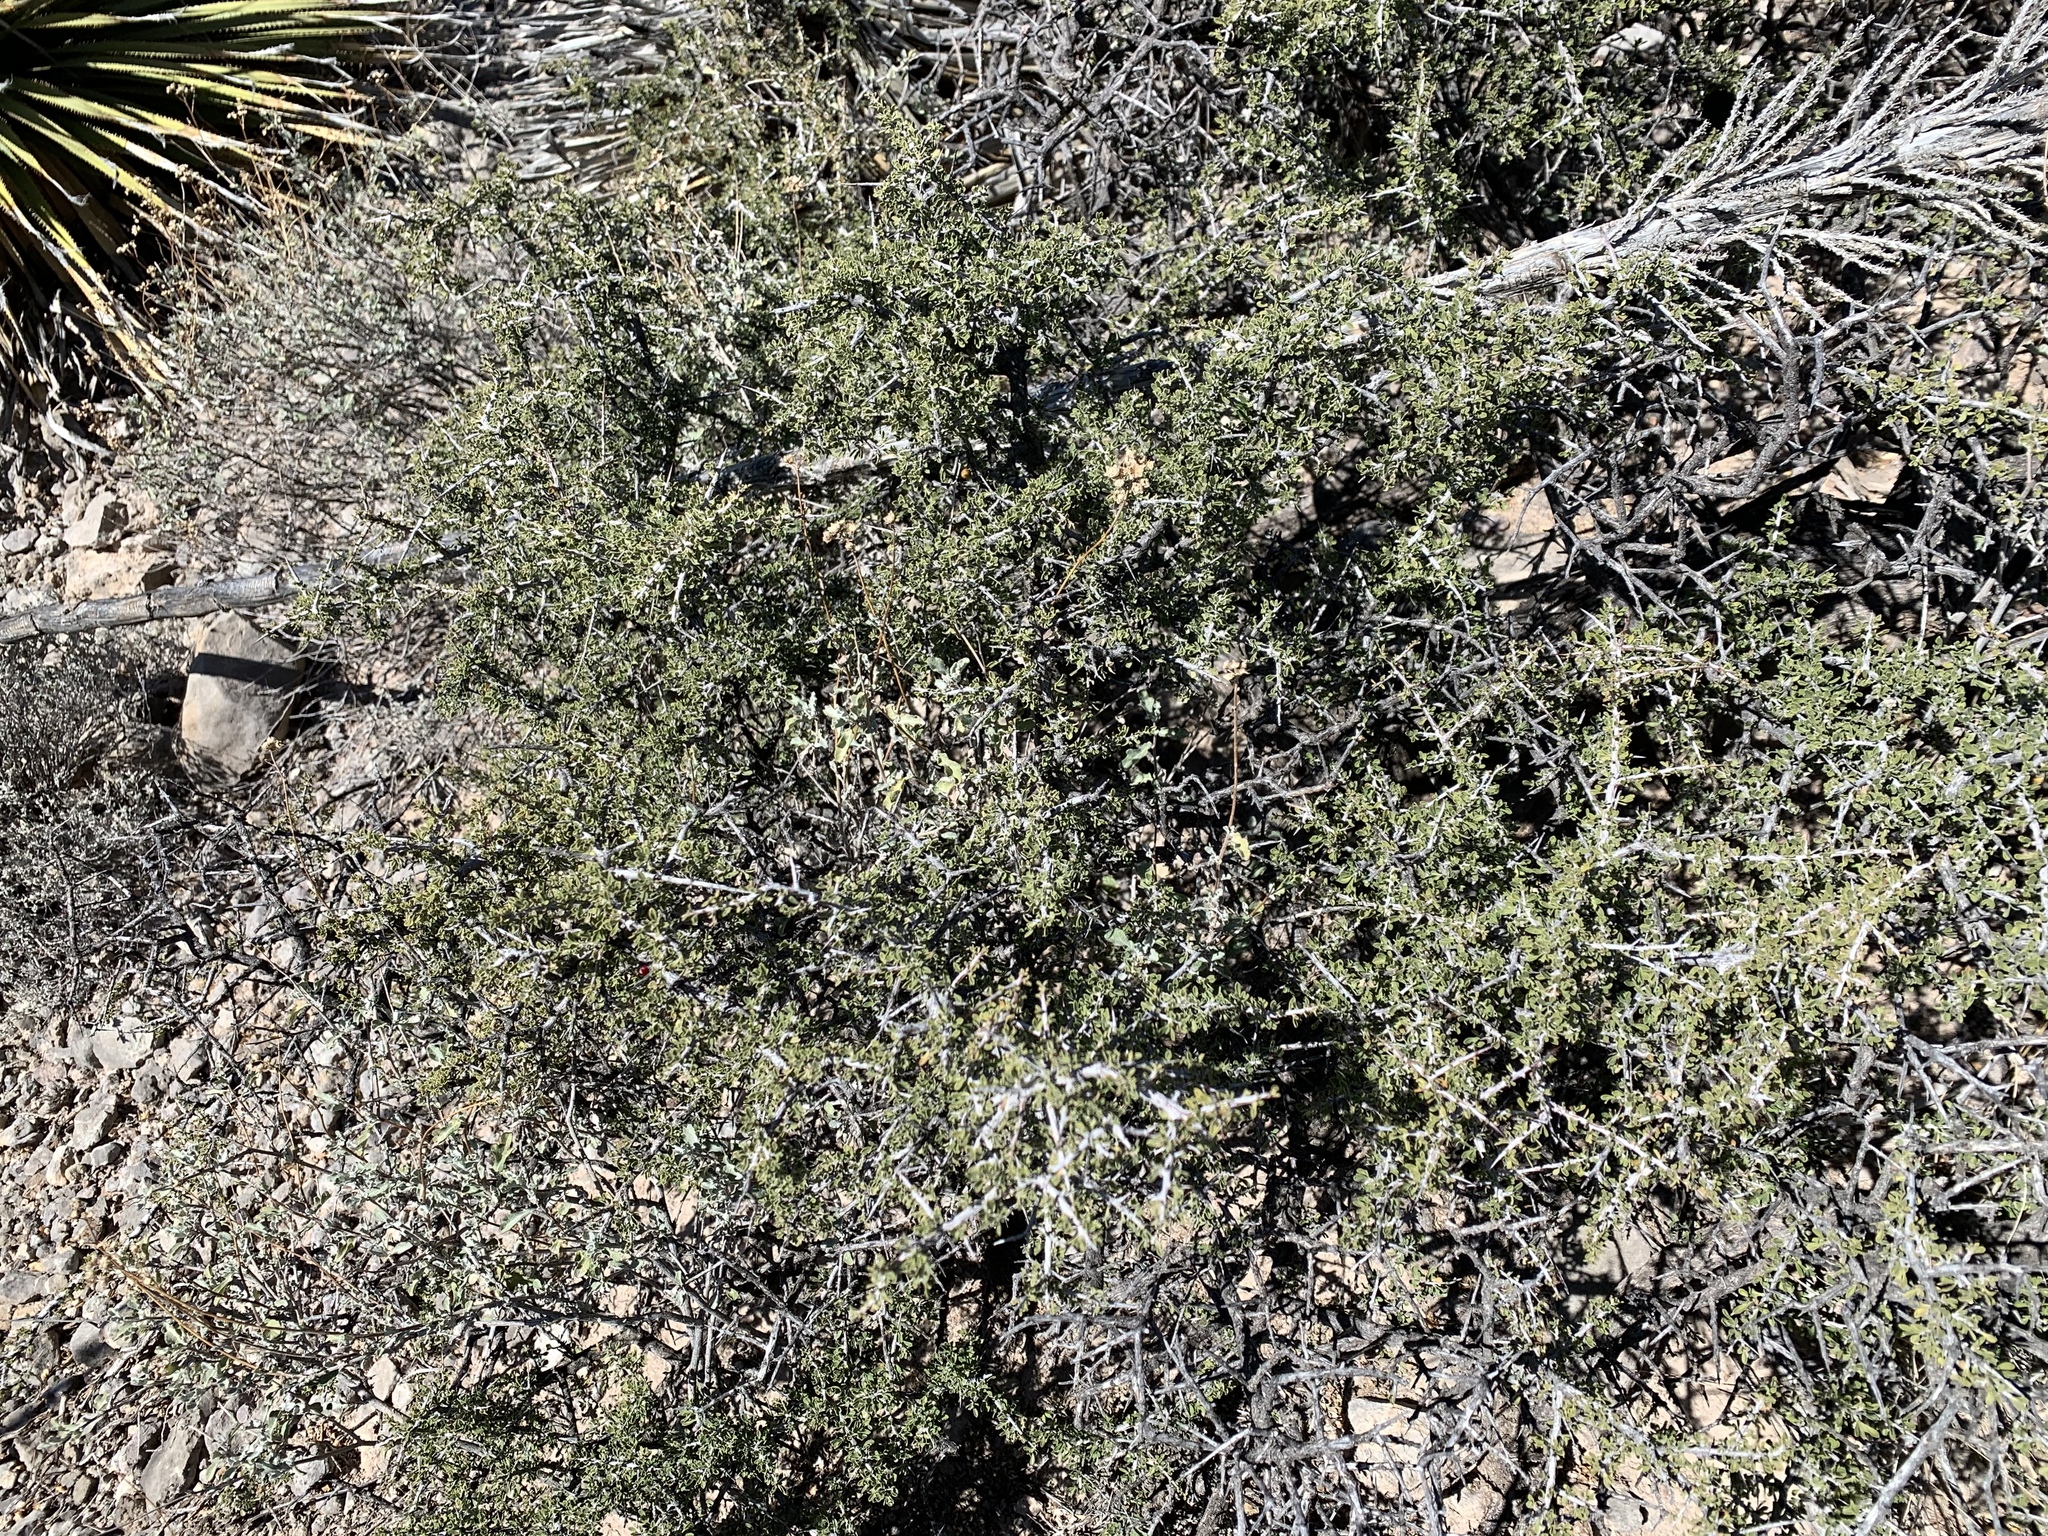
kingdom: Plantae
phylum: Tracheophyta
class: Magnoliopsida
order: Rosales
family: Rhamnaceae
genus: Condalia
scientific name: Condalia warnockii
